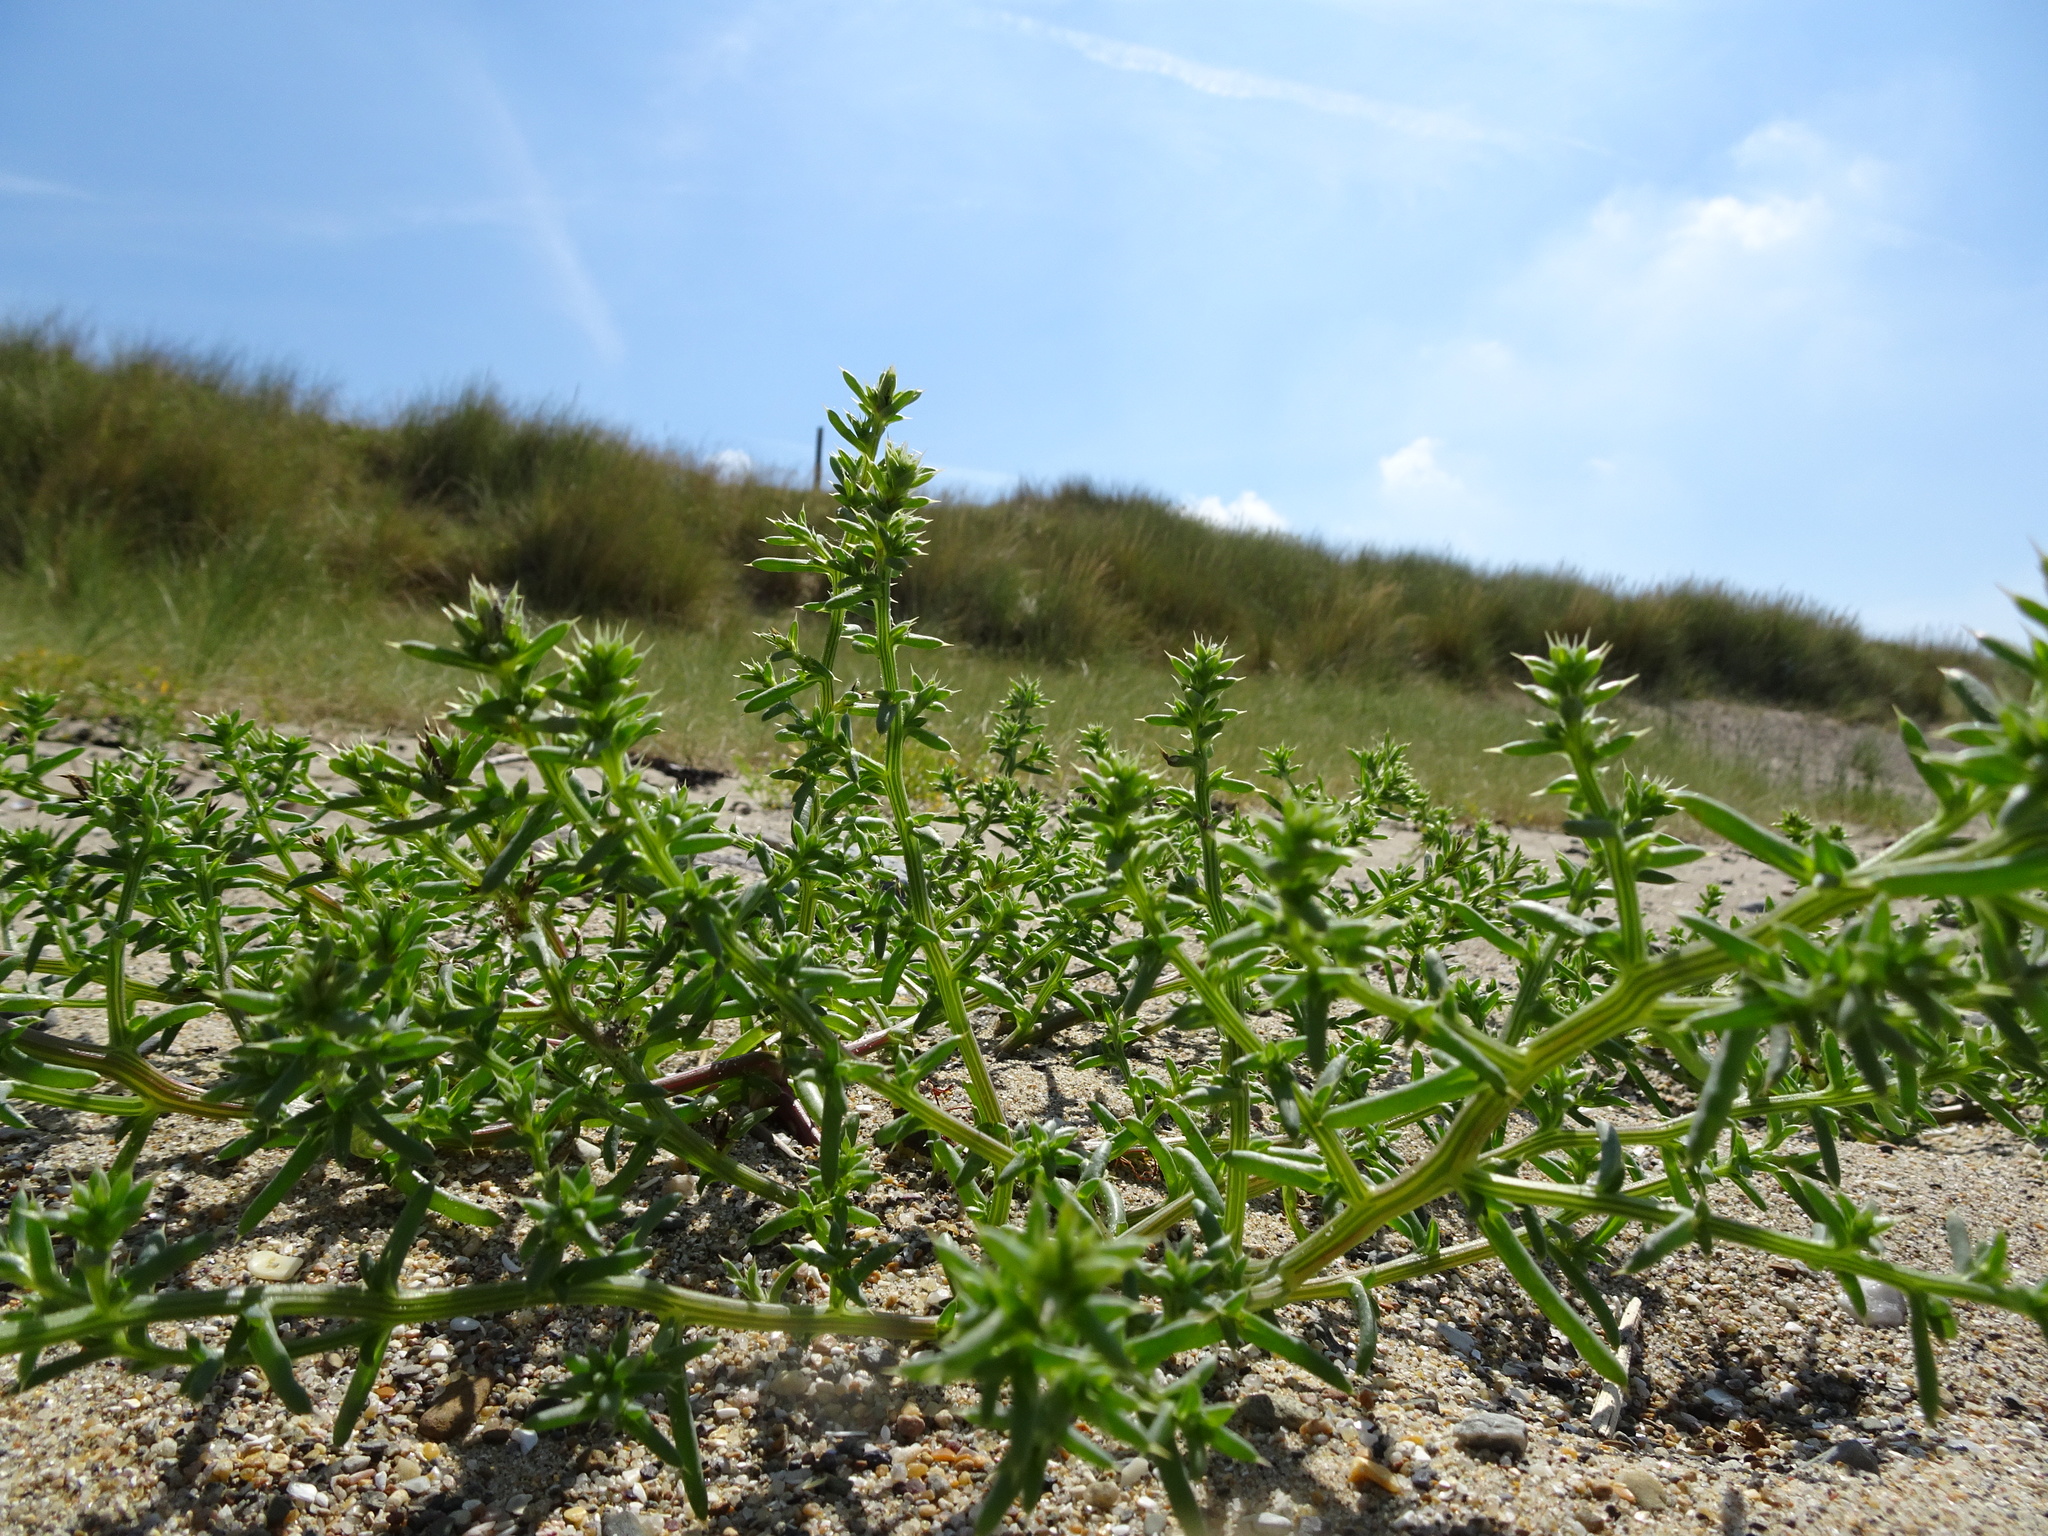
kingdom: Plantae
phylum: Tracheophyta
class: Magnoliopsida
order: Caryophyllales
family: Amaranthaceae
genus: Salsola
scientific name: Salsola kali
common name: Saltwort
